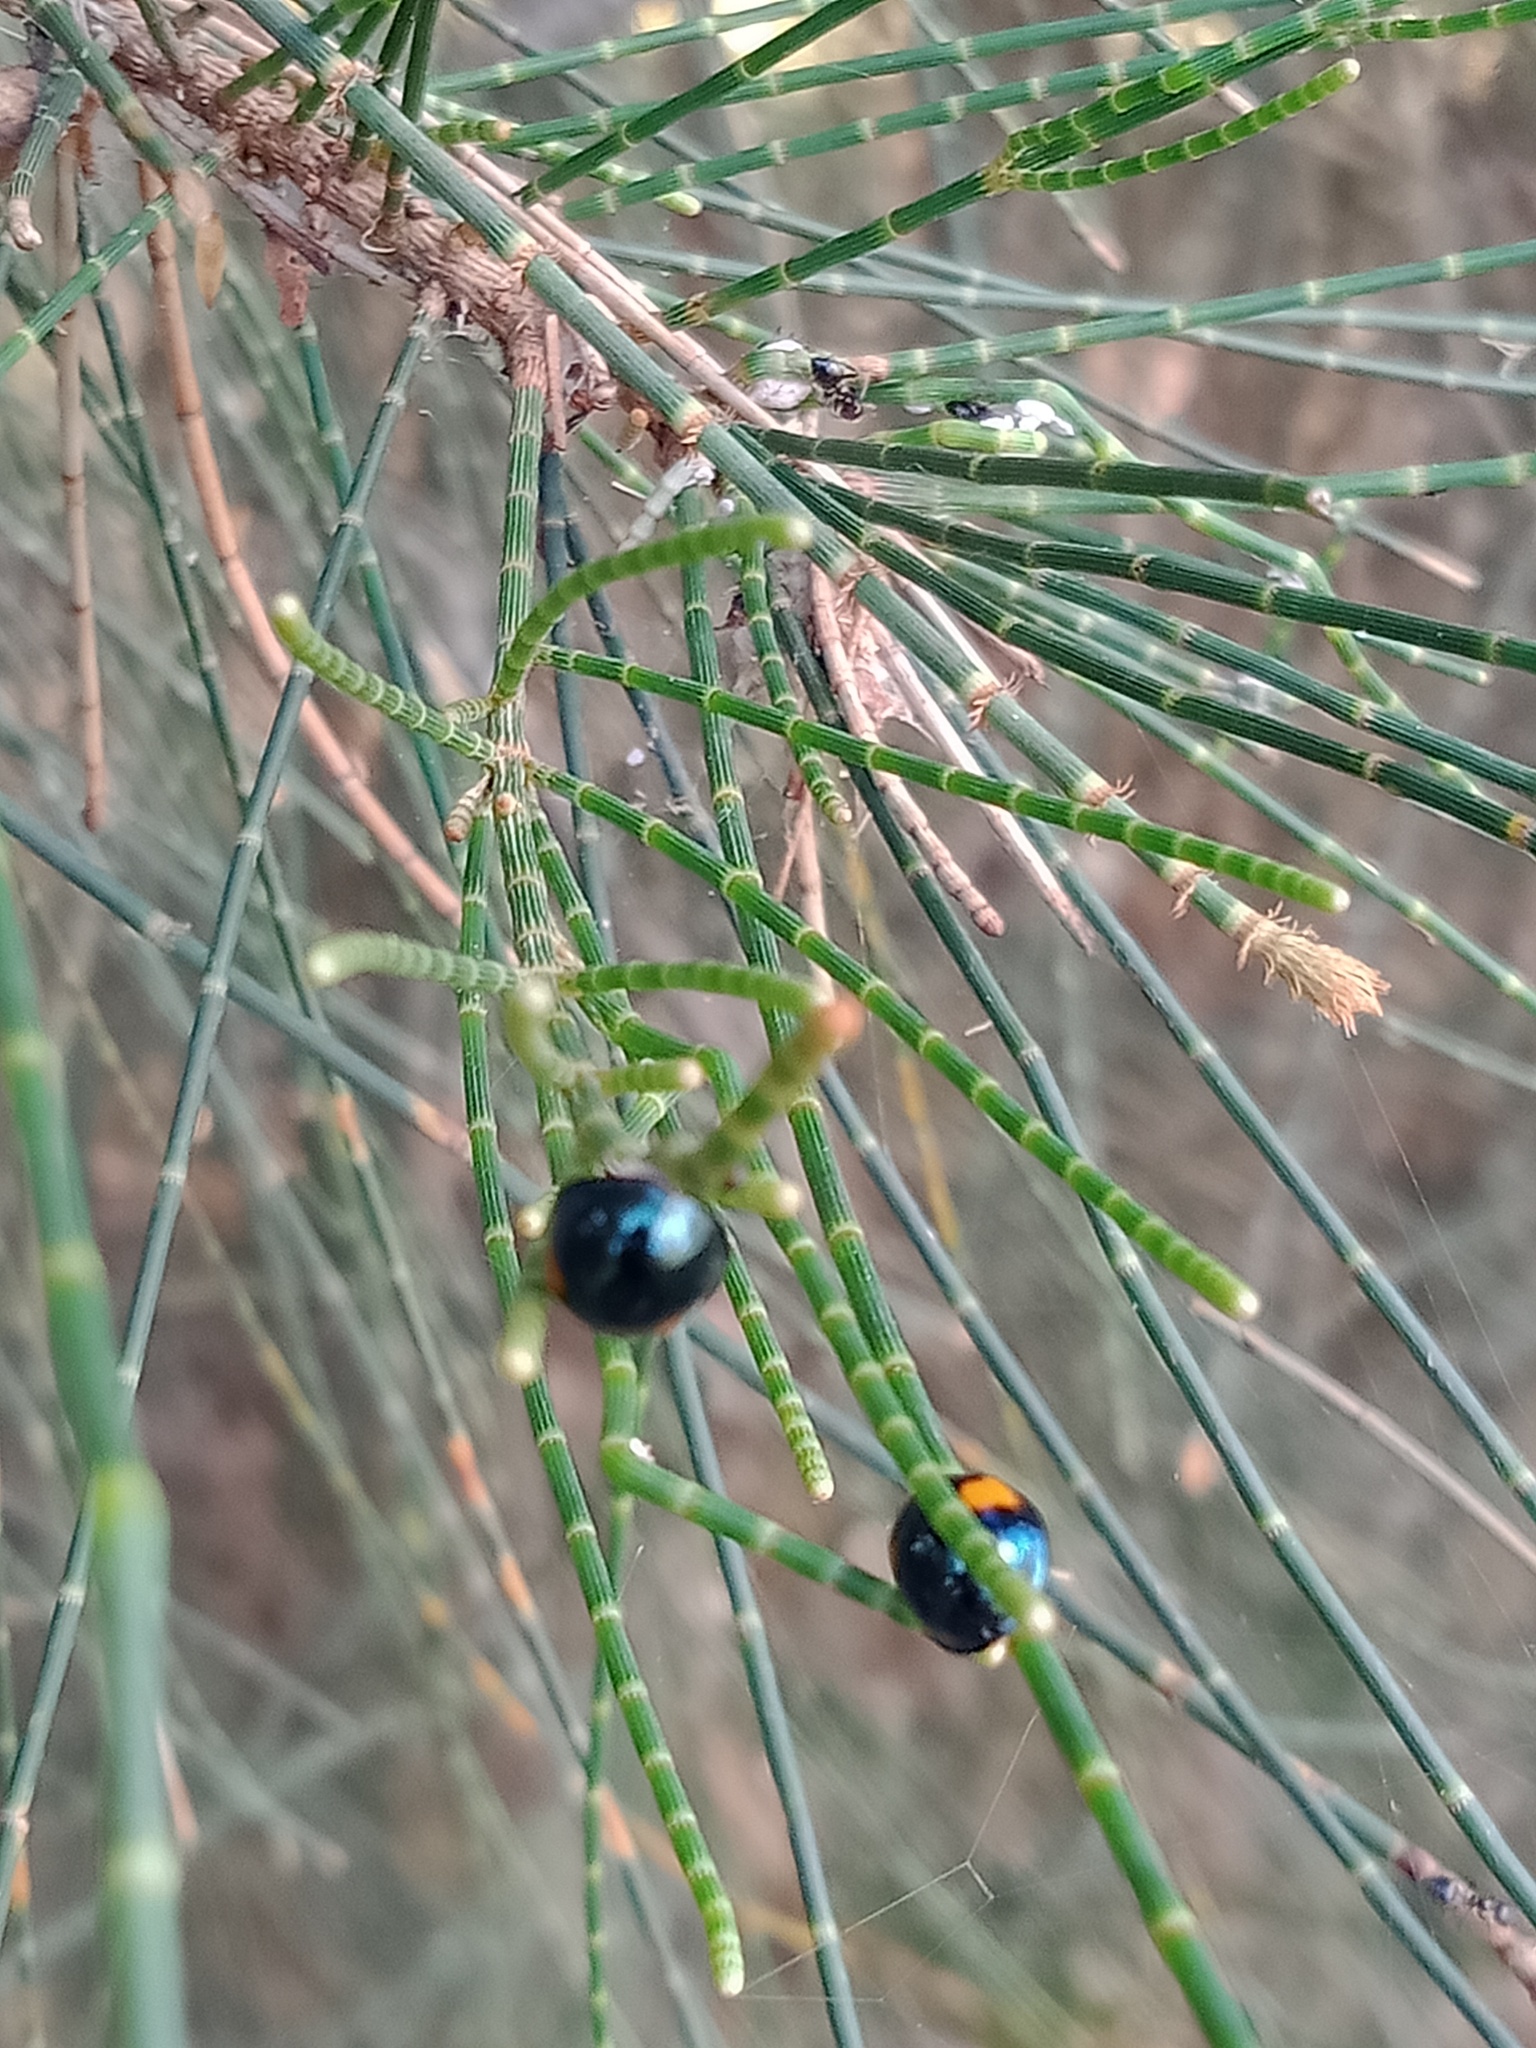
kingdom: Animalia
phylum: Arthropoda
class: Insecta
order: Coleoptera
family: Coccinellidae
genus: Orcus
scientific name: Orcus
